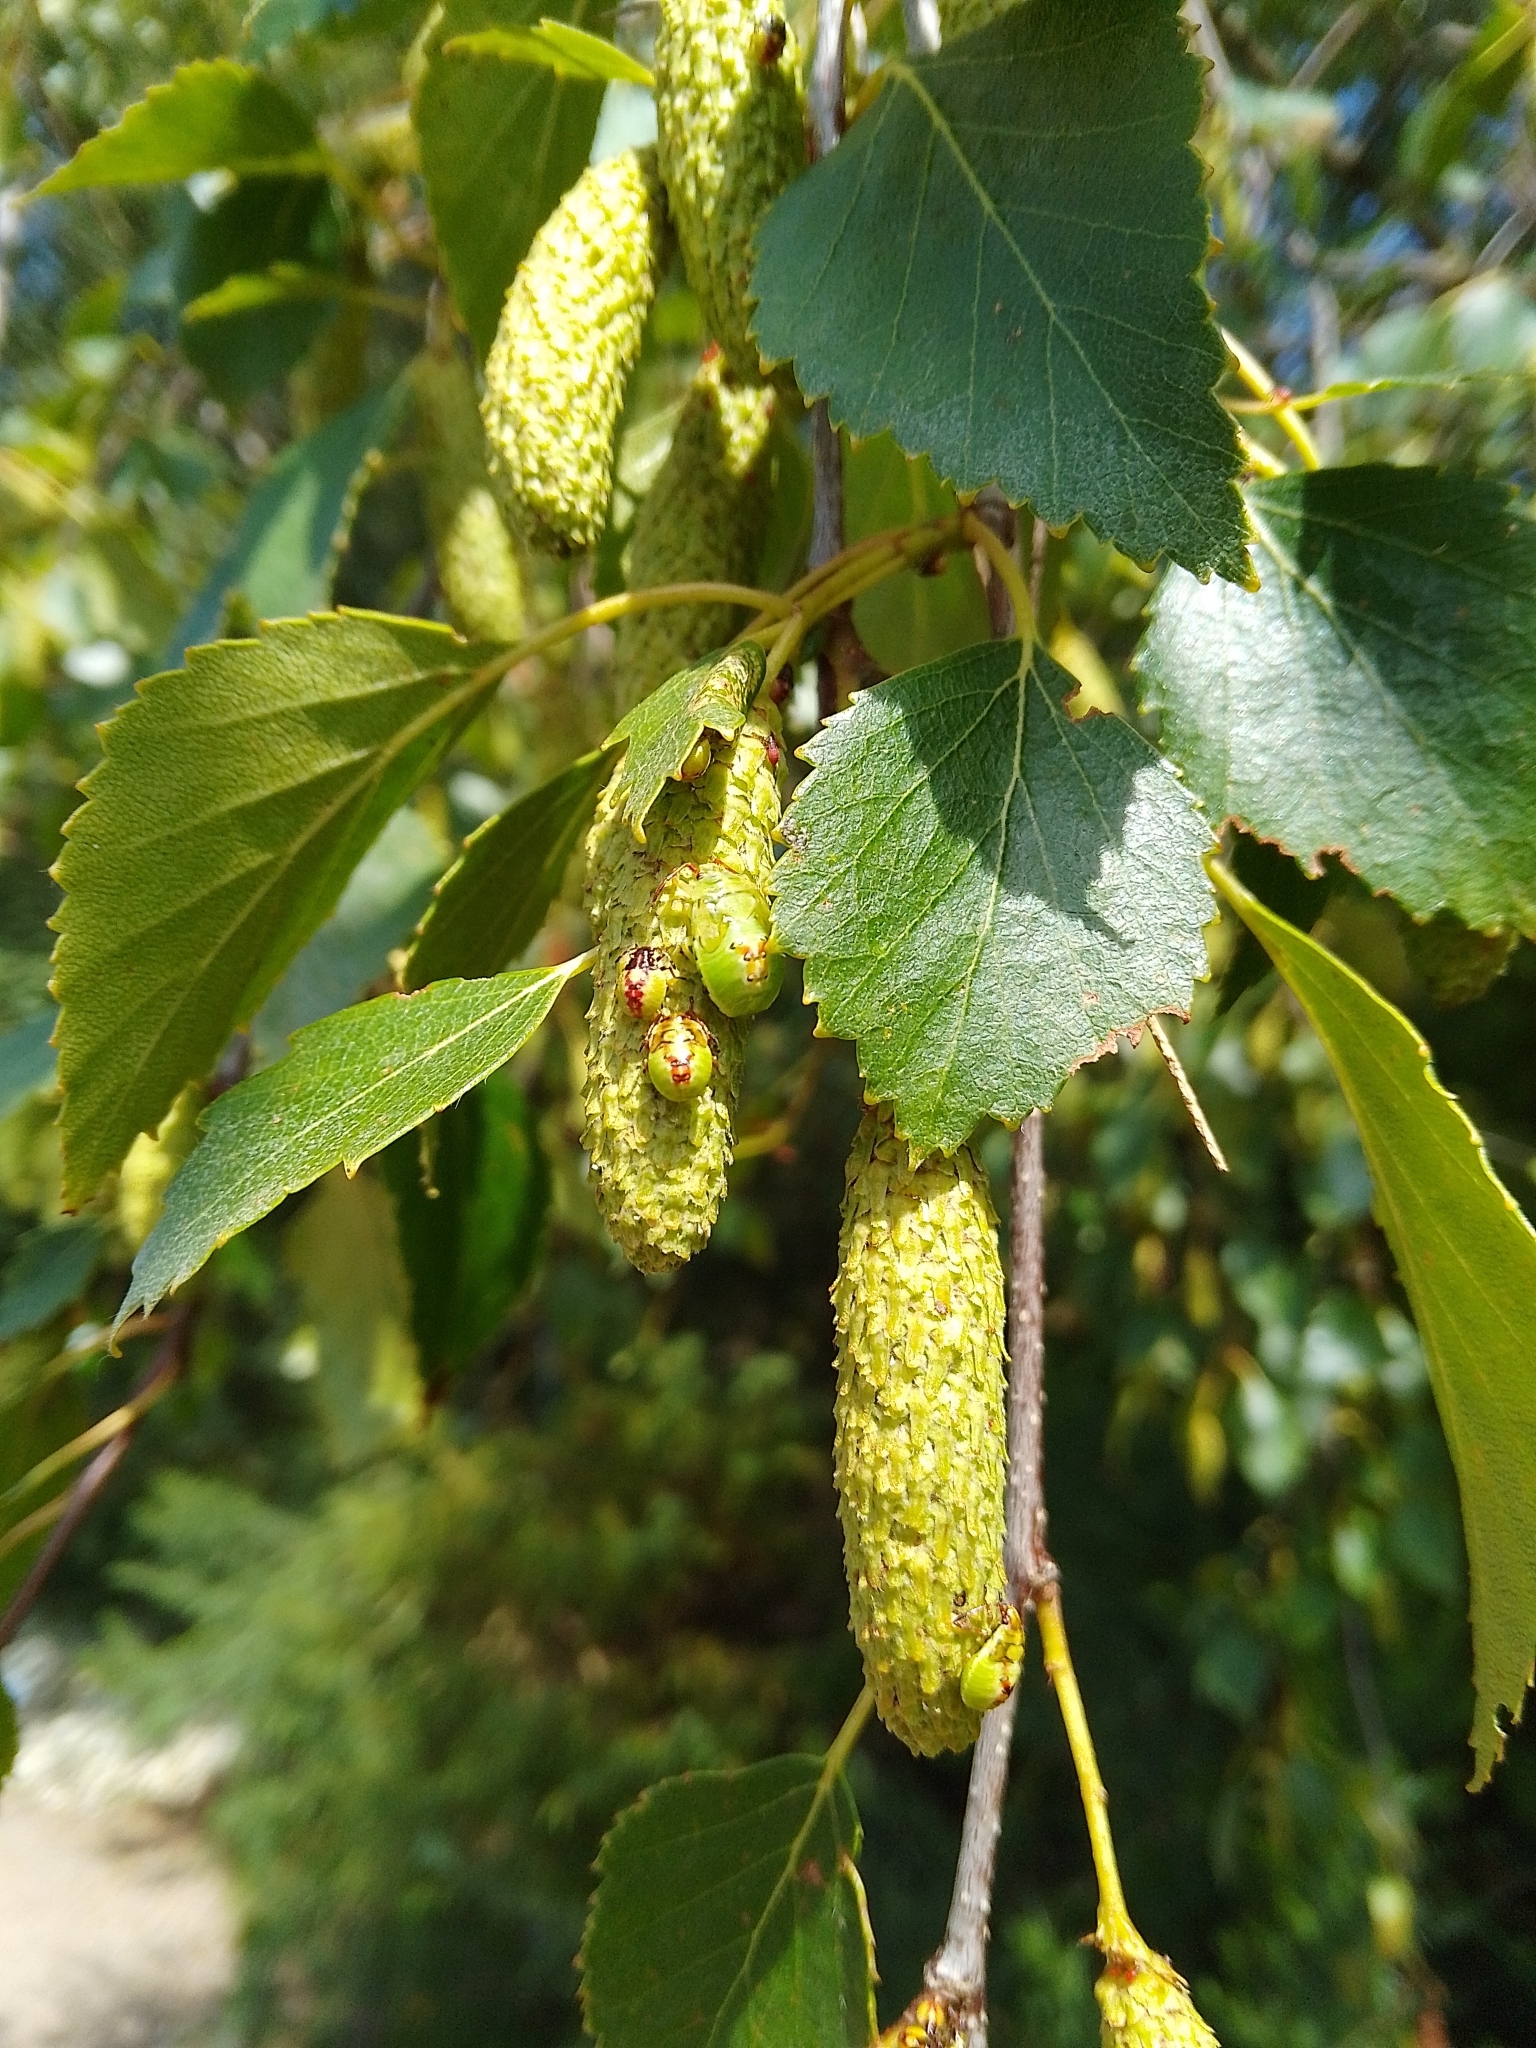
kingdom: Animalia
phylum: Arthropoda
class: Insecta
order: Hemiptera
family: Acanthosomatidae
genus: Elasmostethus
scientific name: Elasmostethus interstinctus
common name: Birch shieldbug
